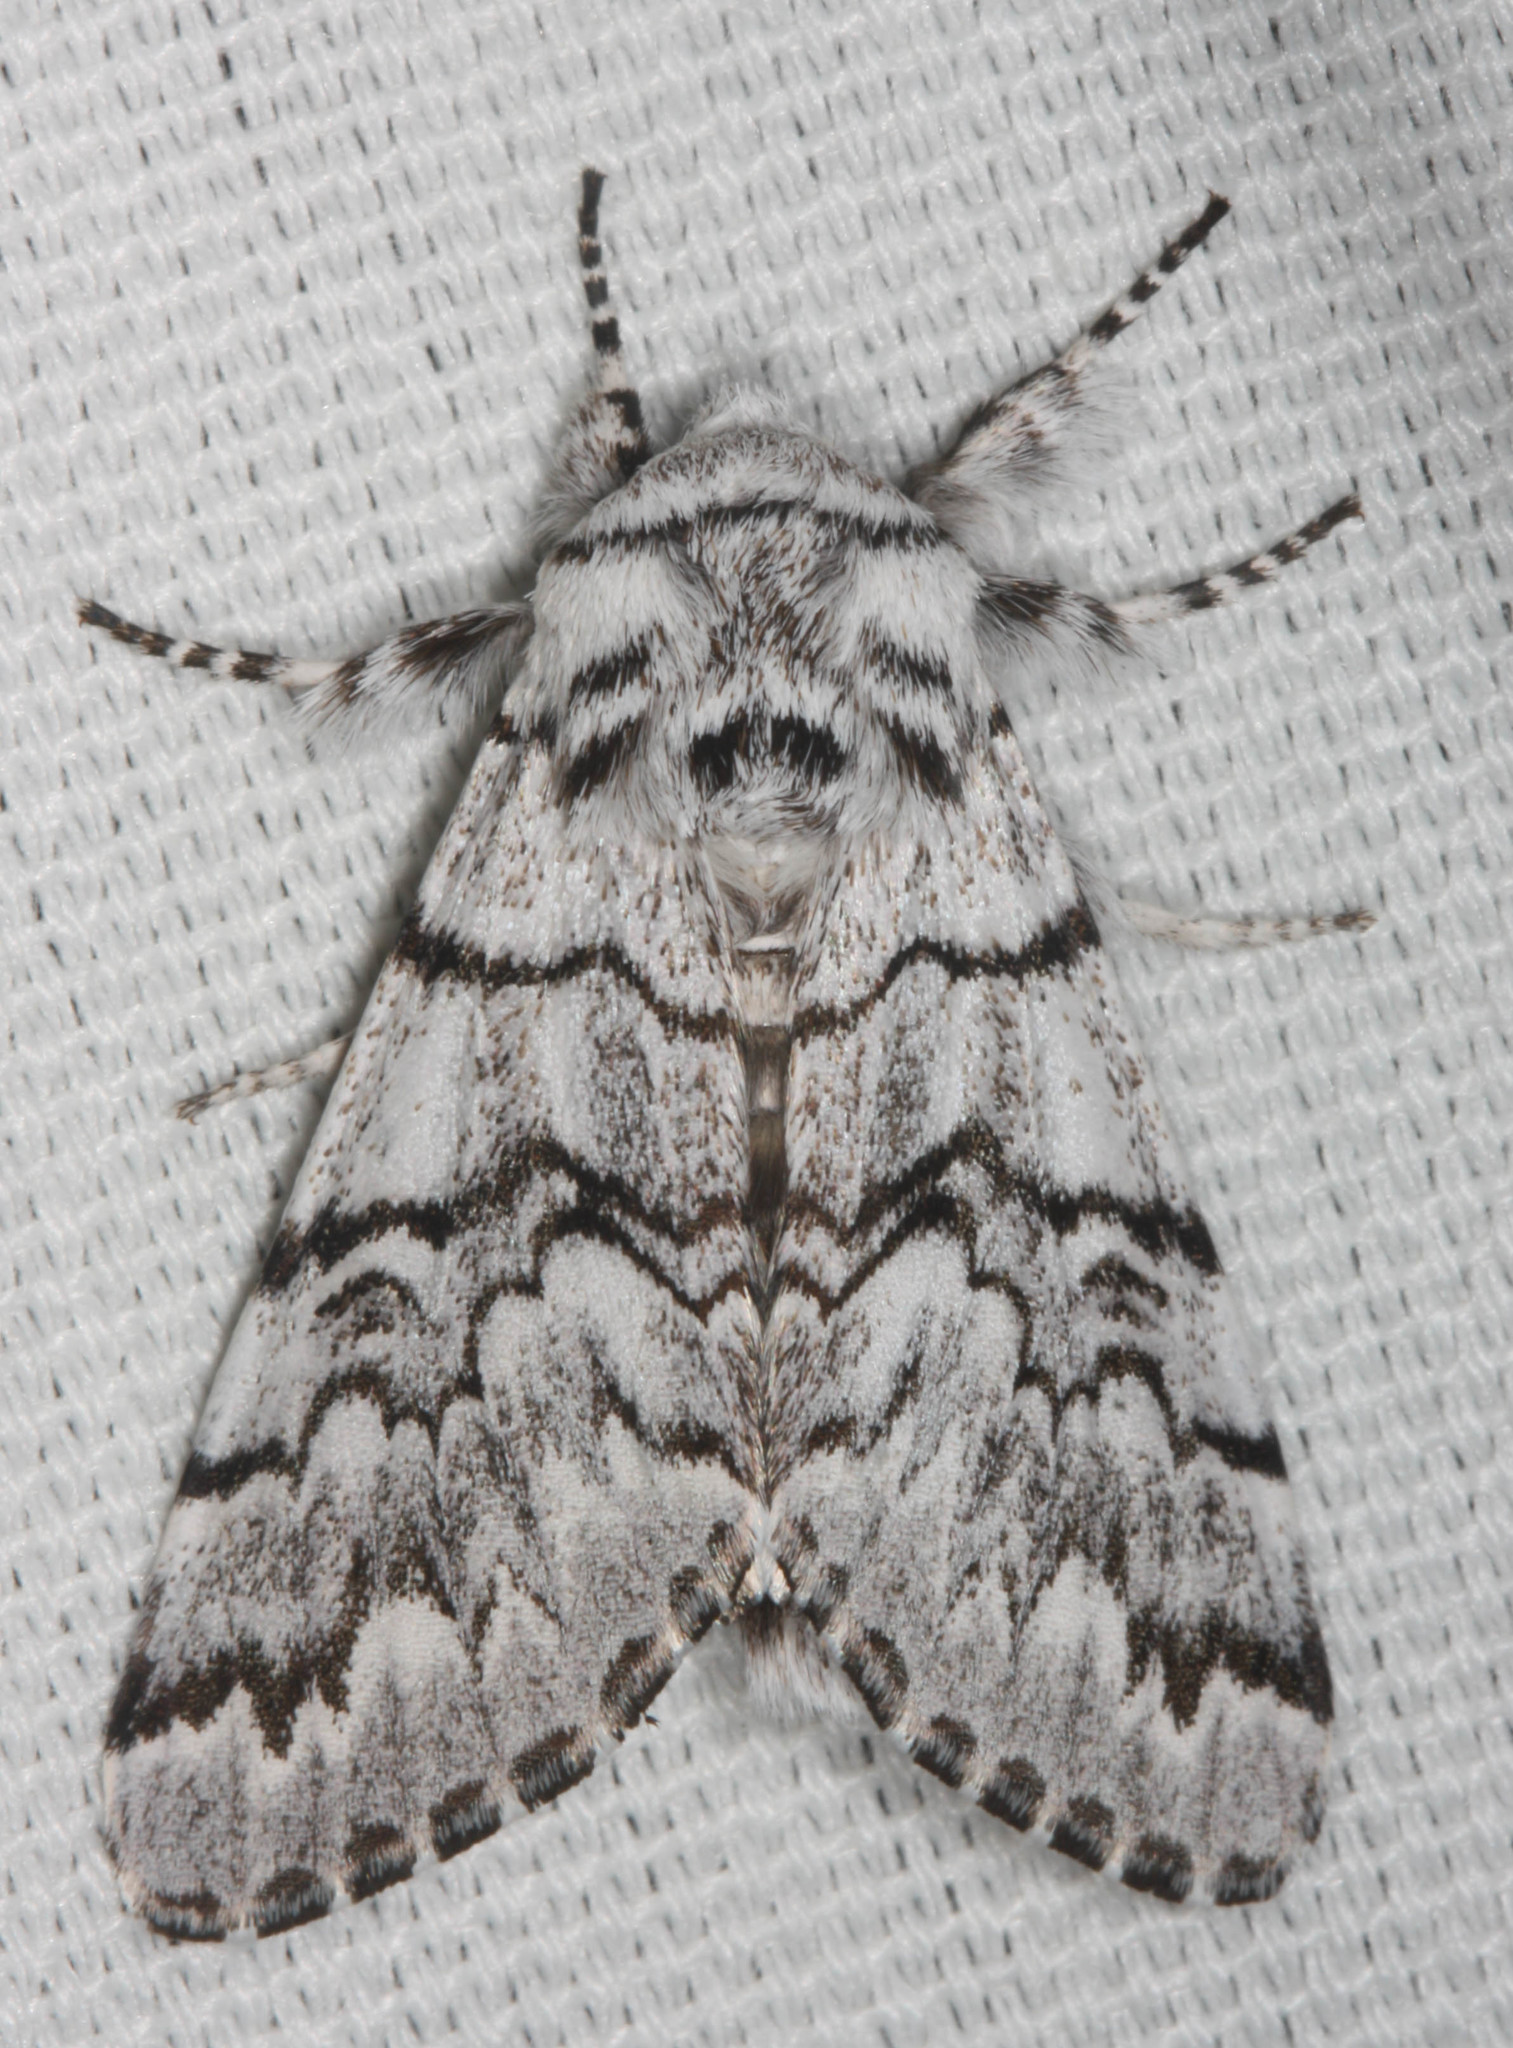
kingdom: Animalia
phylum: Arthropoda
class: Insecta
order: Lepidoptera
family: Noctuidae
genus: Panthea
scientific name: Panthea virginarius
